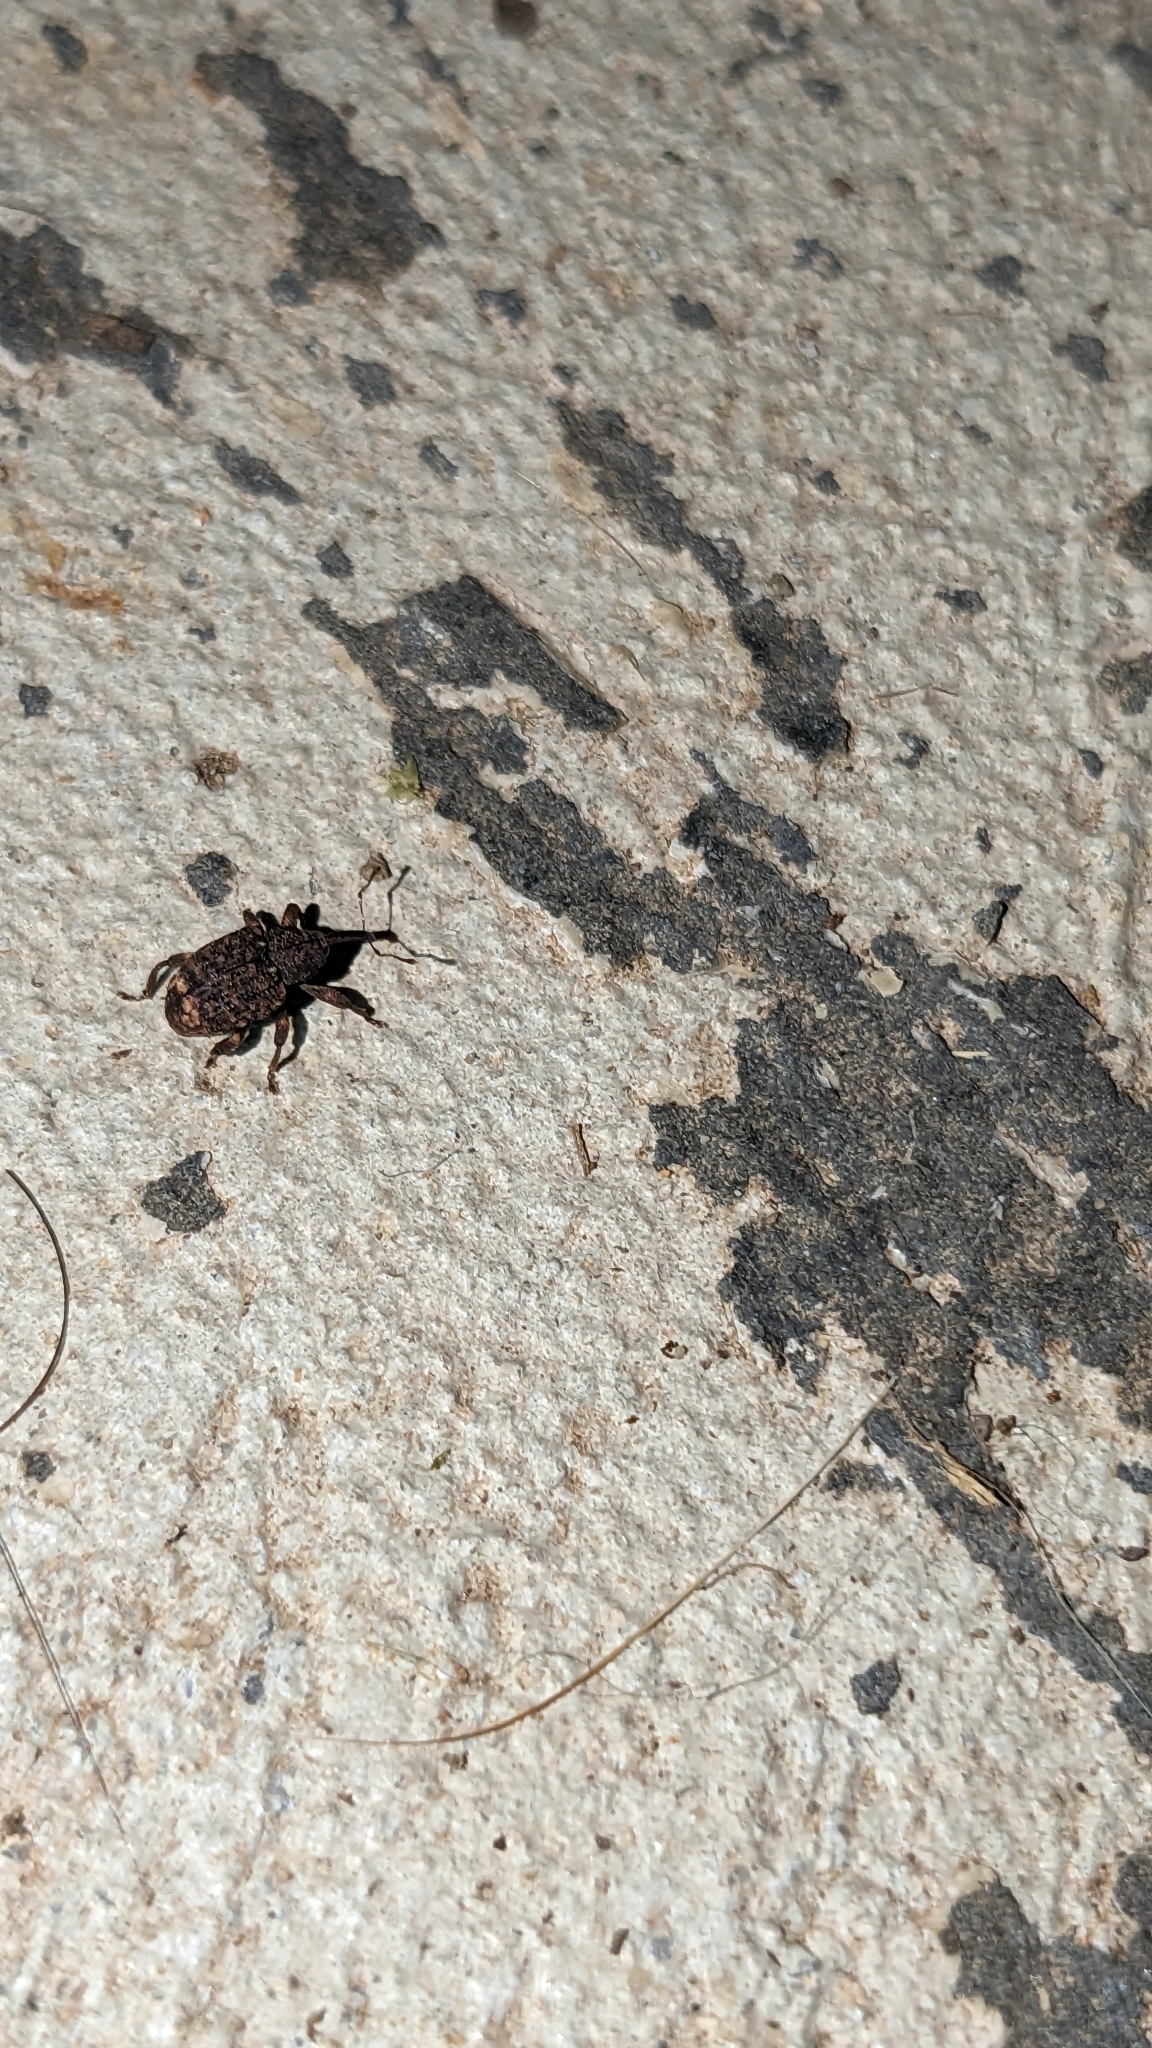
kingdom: Animalia
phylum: Arthropoda
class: Insecta
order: Coleoptera
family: Curculionidae
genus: Conotrachelus
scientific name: Conotrachelus posticatus
